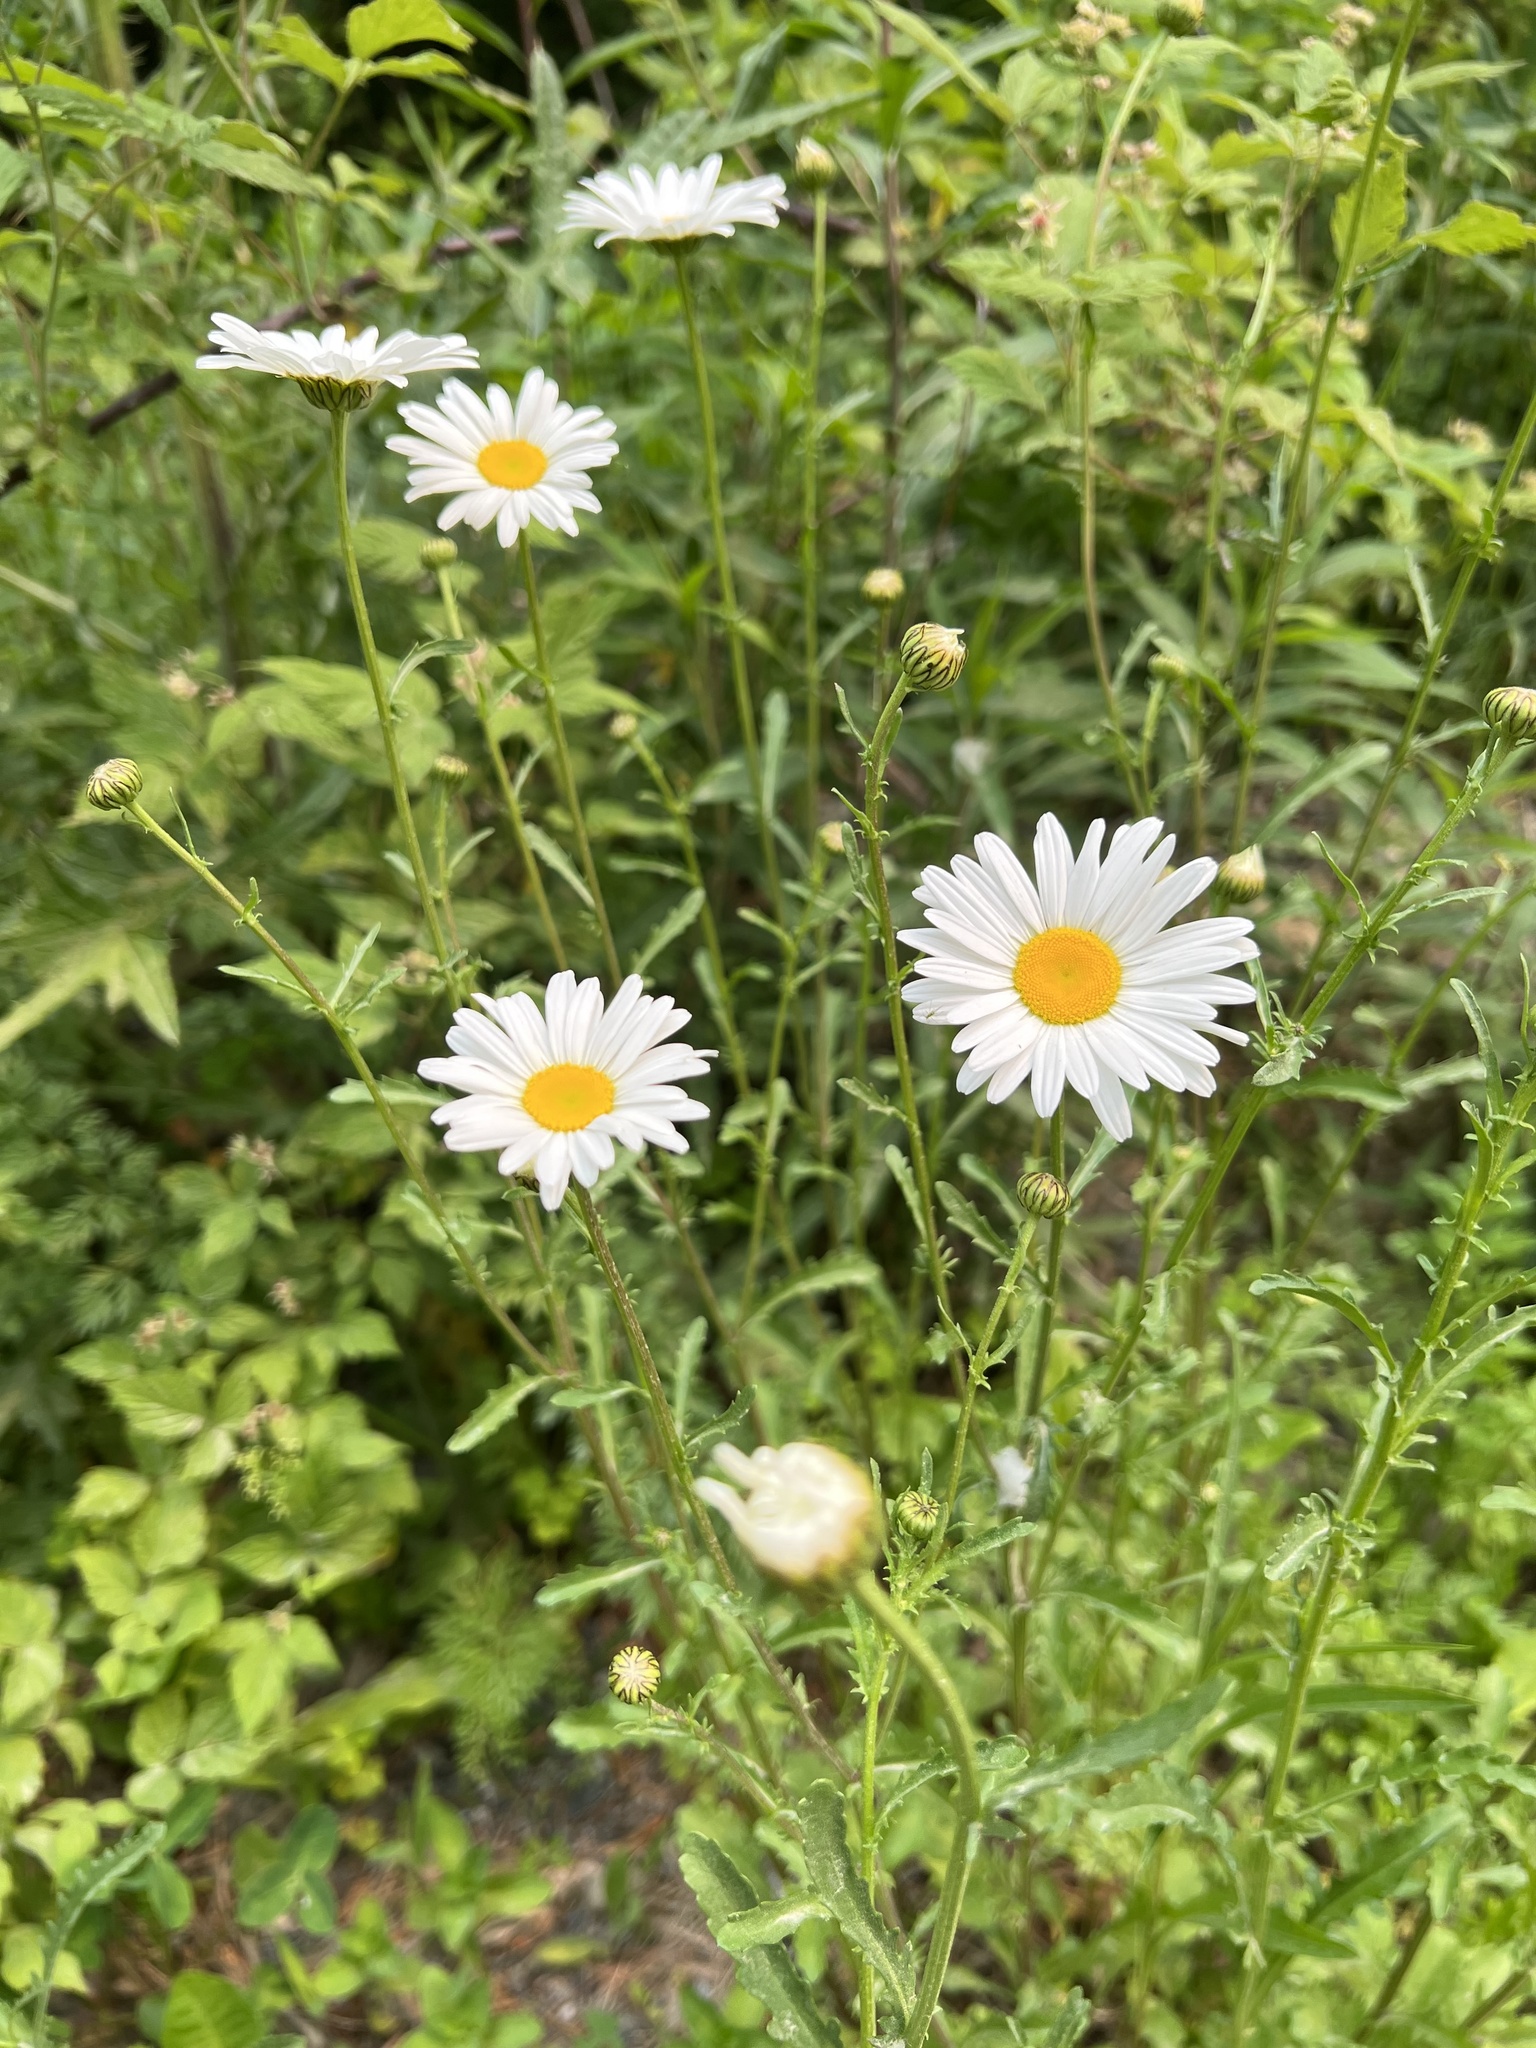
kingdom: Plantae
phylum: Tracheophyta
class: Magnoliopsida
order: Asterales
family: Asteraceae
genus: Leucanthemum
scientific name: Leucanthemum vulgare
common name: Oxeye daisy
